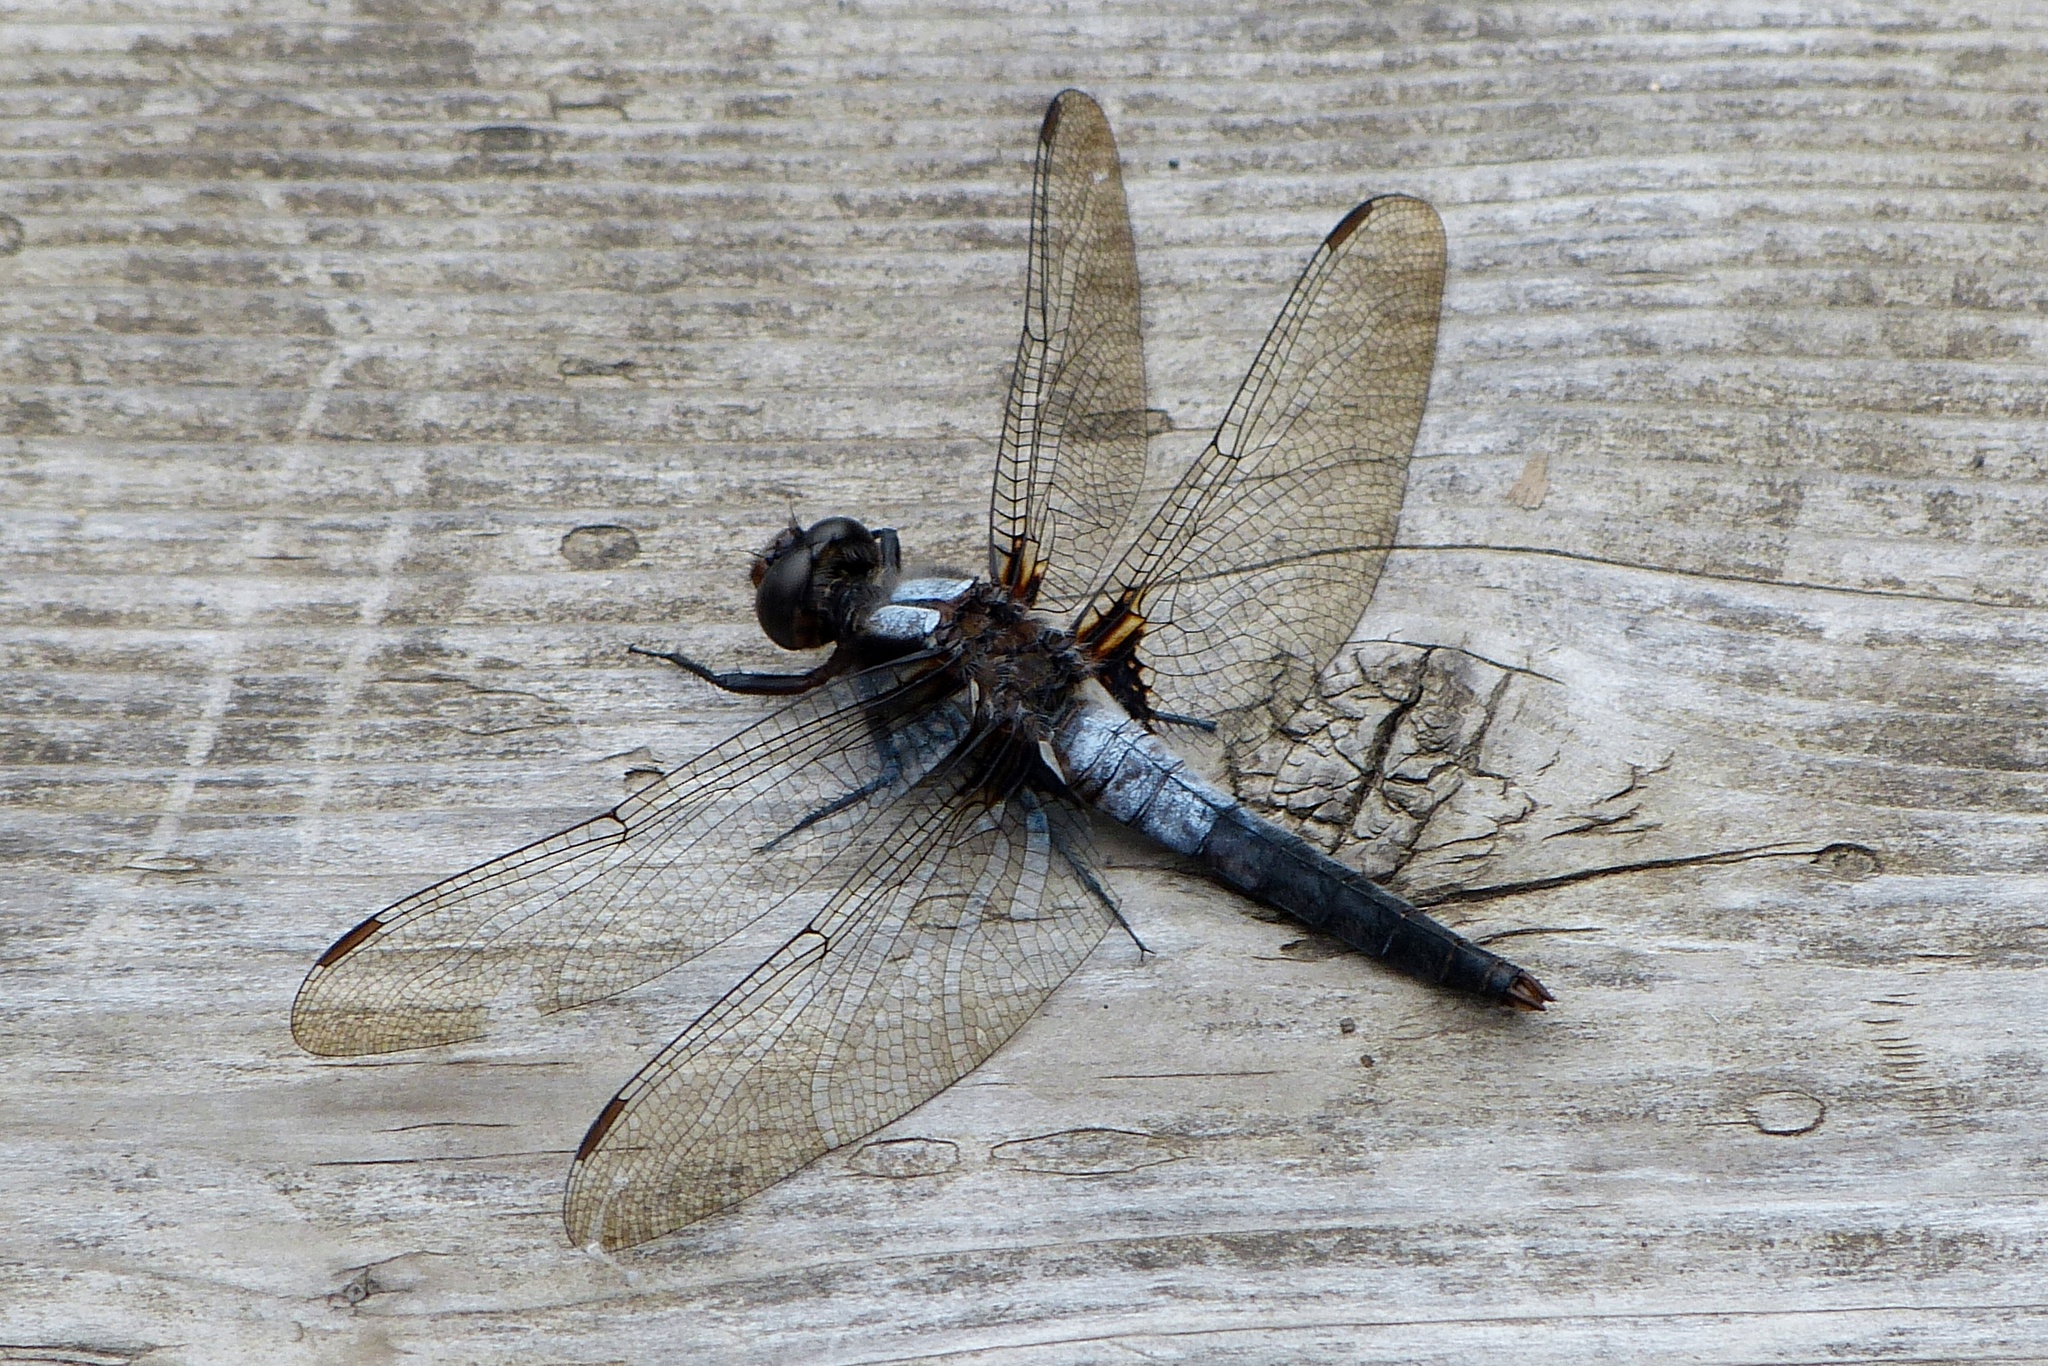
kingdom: Animalia
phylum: Arthropoda
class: Insecta
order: Odonata
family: Libellulidae
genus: Ladona
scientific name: Ladona julia
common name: Chalk-fronted corporal
